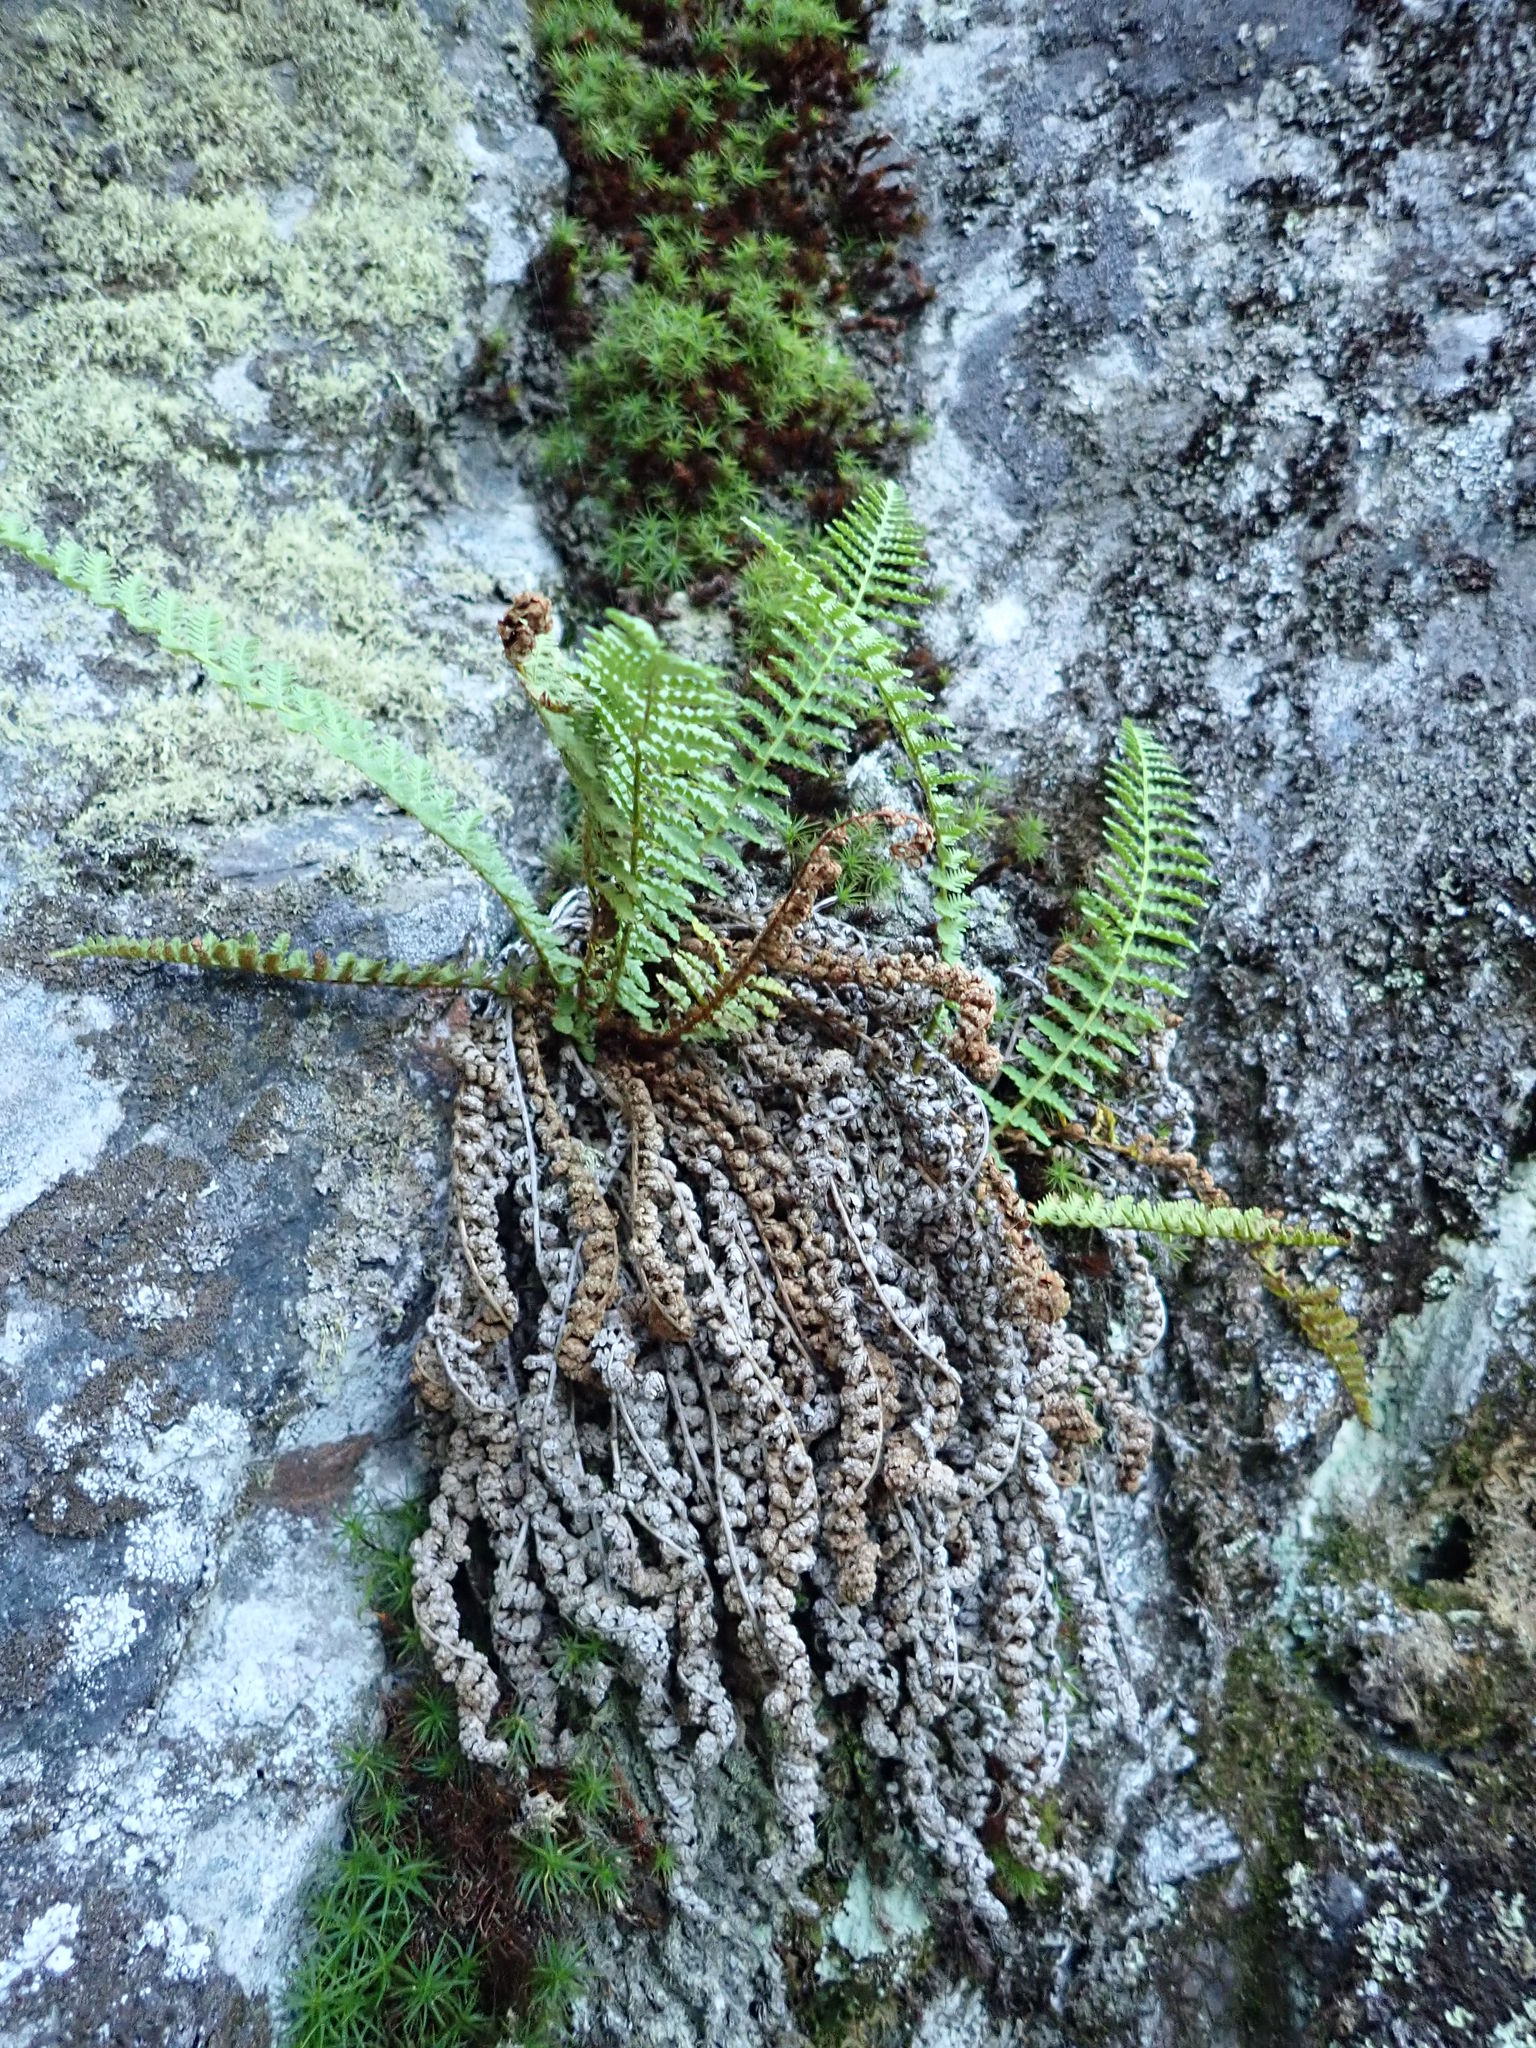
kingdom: Plantae
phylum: Tracheophyta
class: Polypodiopsida
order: Polypodiales
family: Dryopteridaceae
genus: Dryopteris
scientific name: Dryopteris fragrans
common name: Fragrant wood fern
